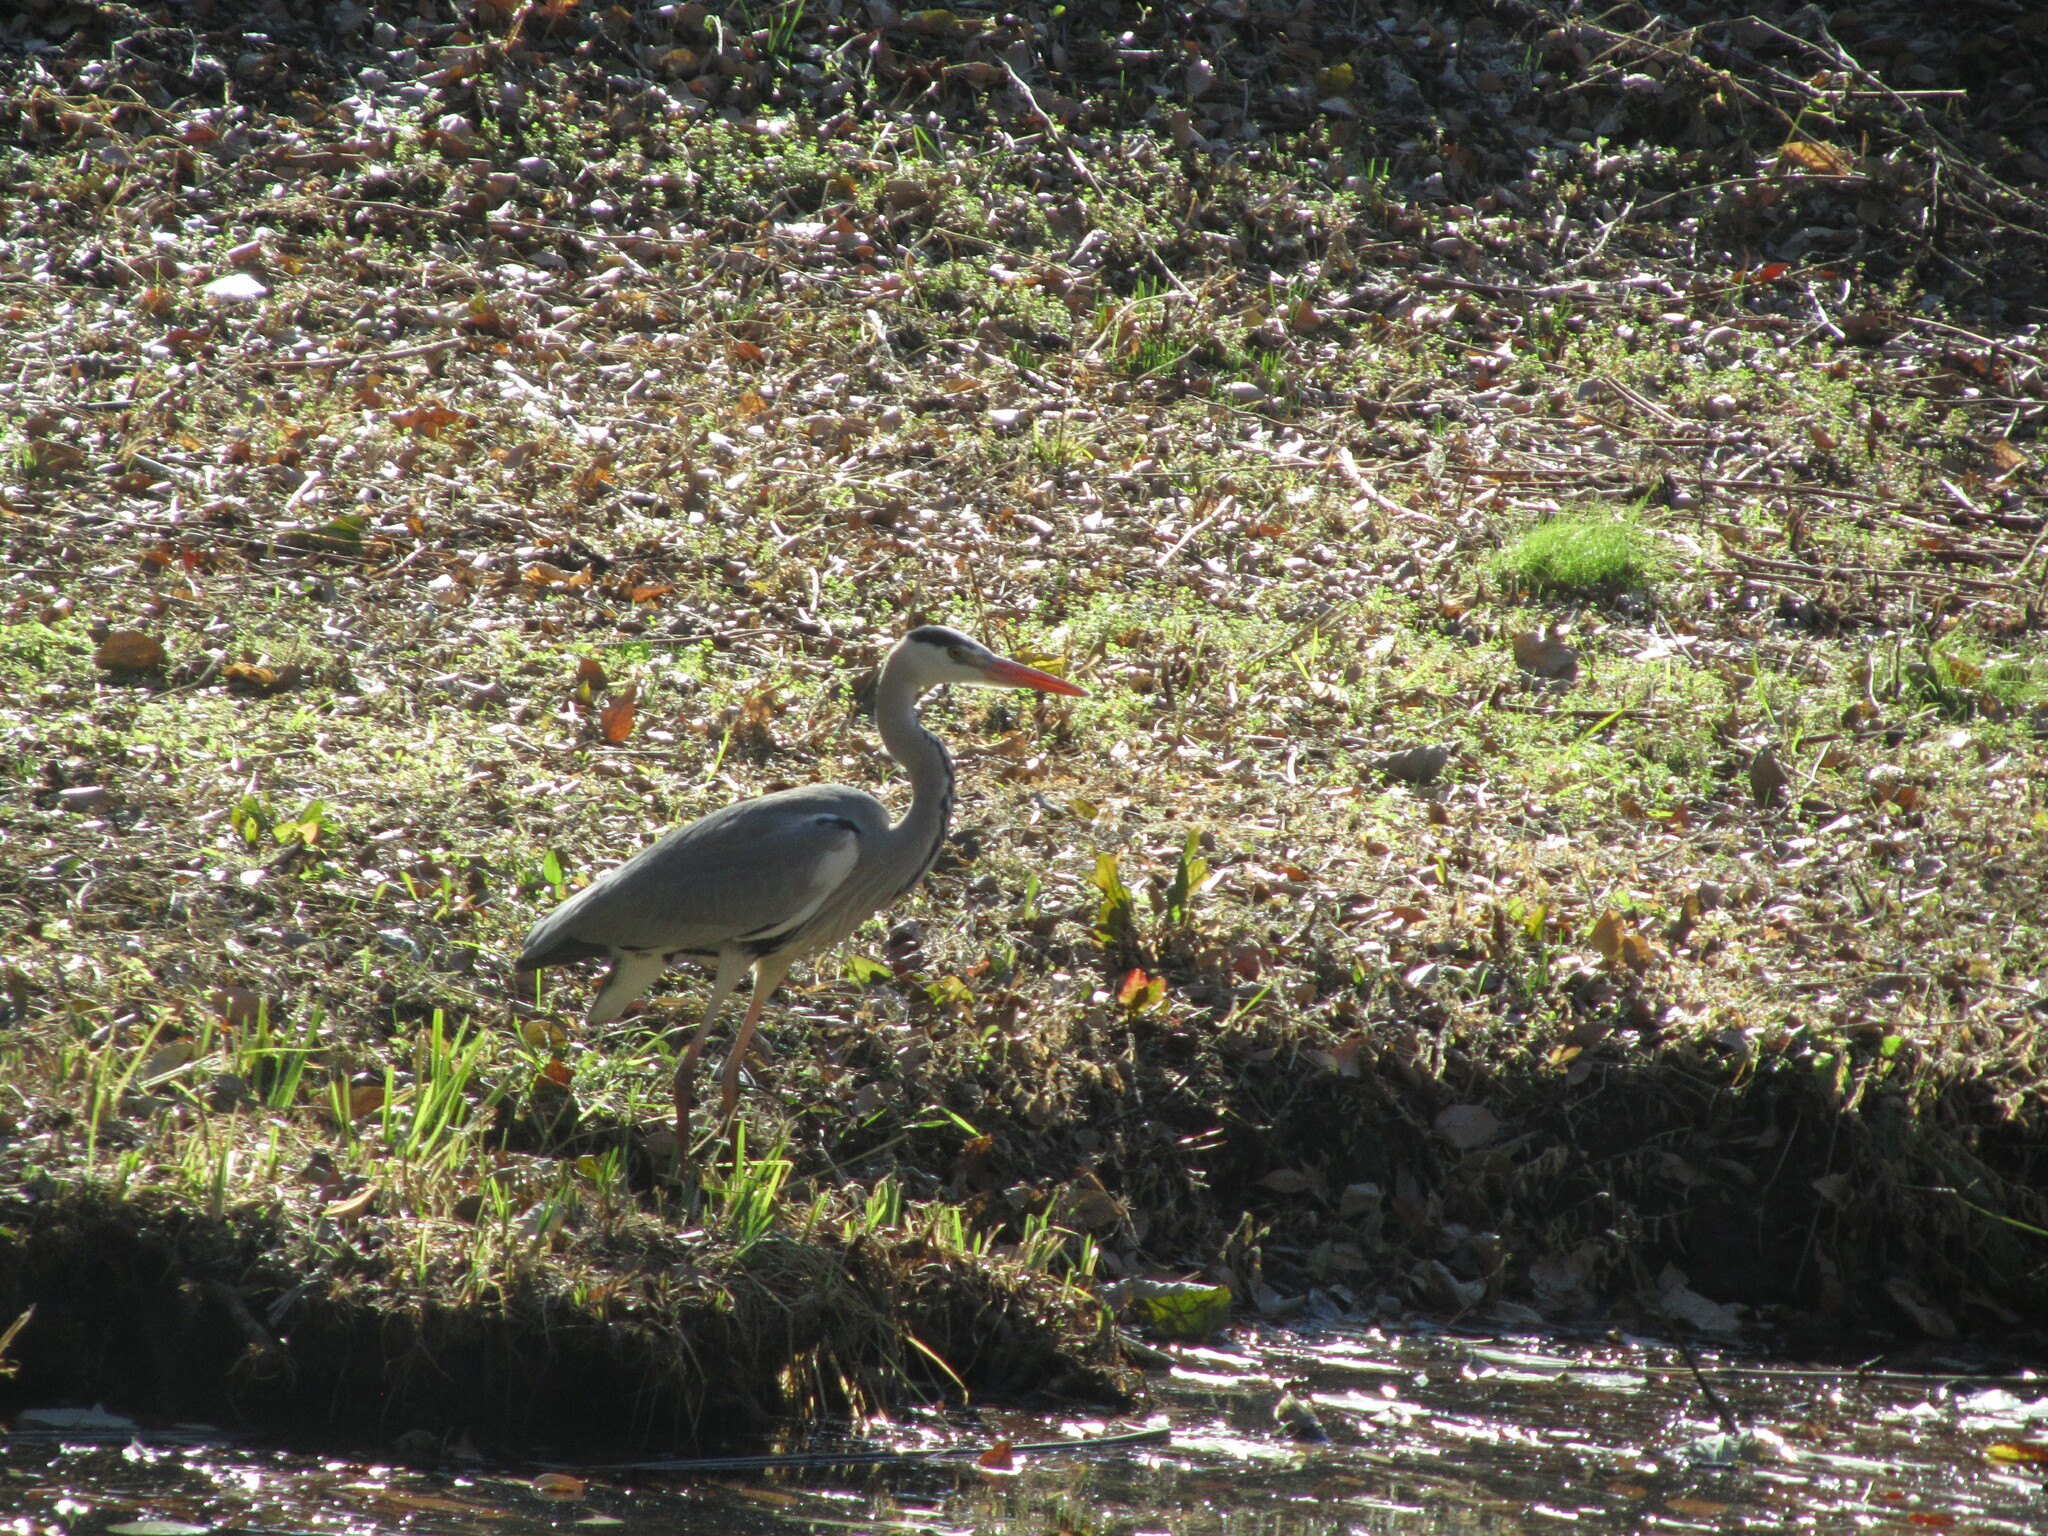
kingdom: Animalia
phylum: Chordata
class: Aves
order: Pelecaniformes
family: Ardeidae
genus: Ardea
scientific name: Ardea cinerea
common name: Grey heron
